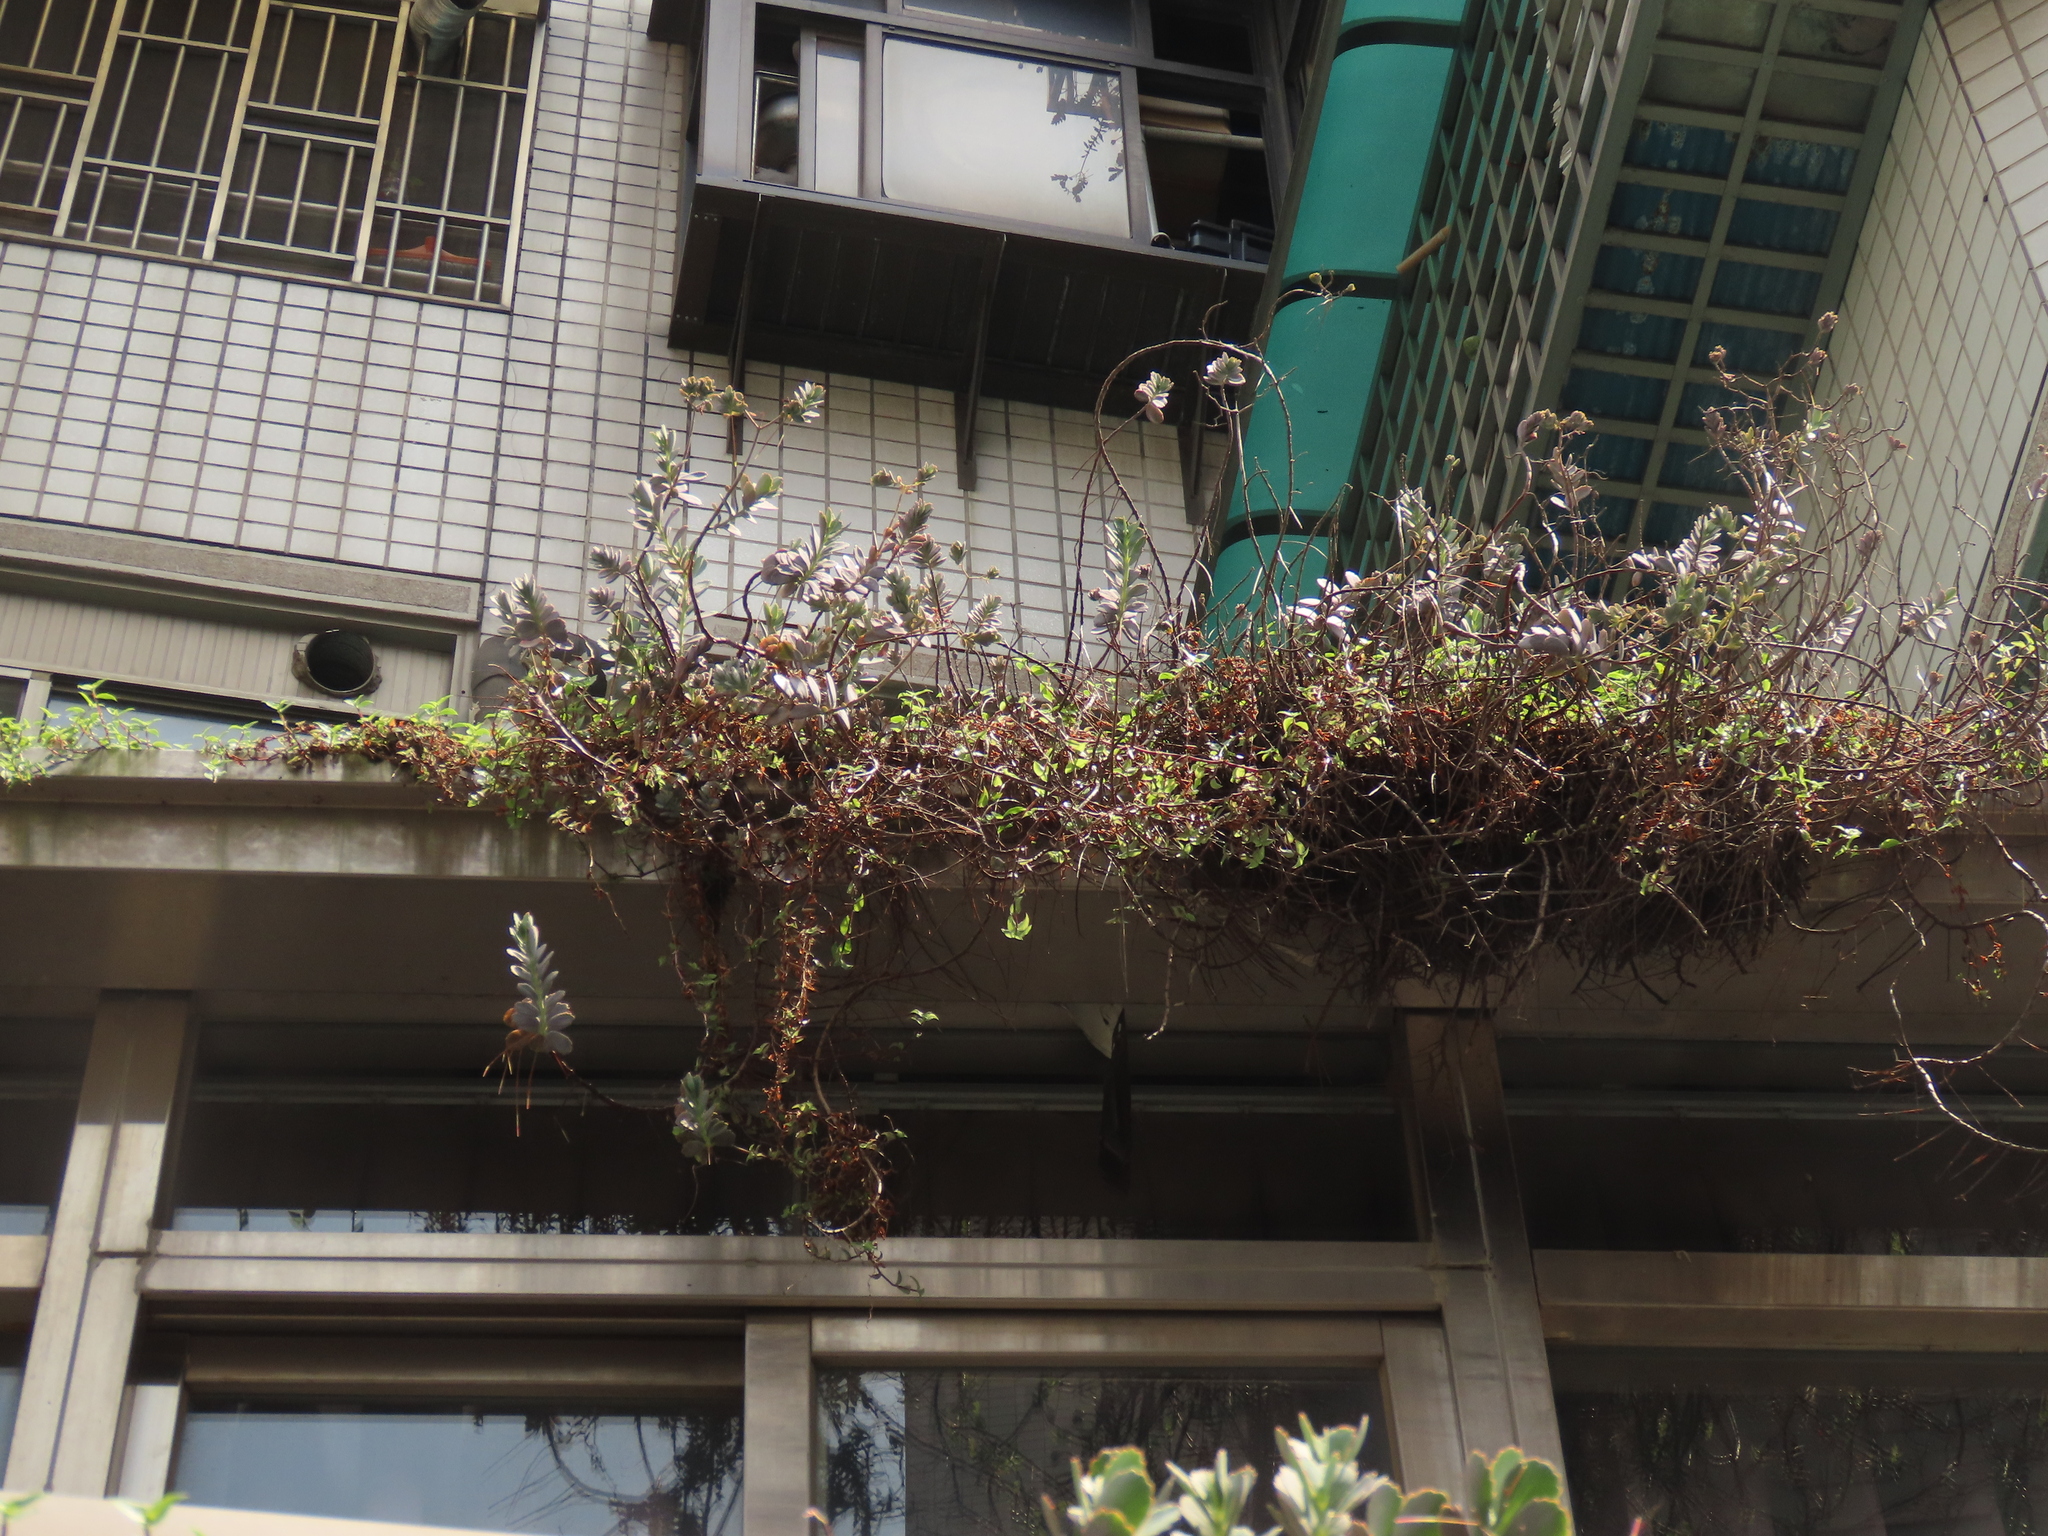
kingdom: Plantae
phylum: Tracheophyta
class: Magnoliopsida
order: Saxifragales
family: Crassulaceae
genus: Kalanchoe
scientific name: Kalanchoe fedtschenkoi
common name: Lavender scallops
